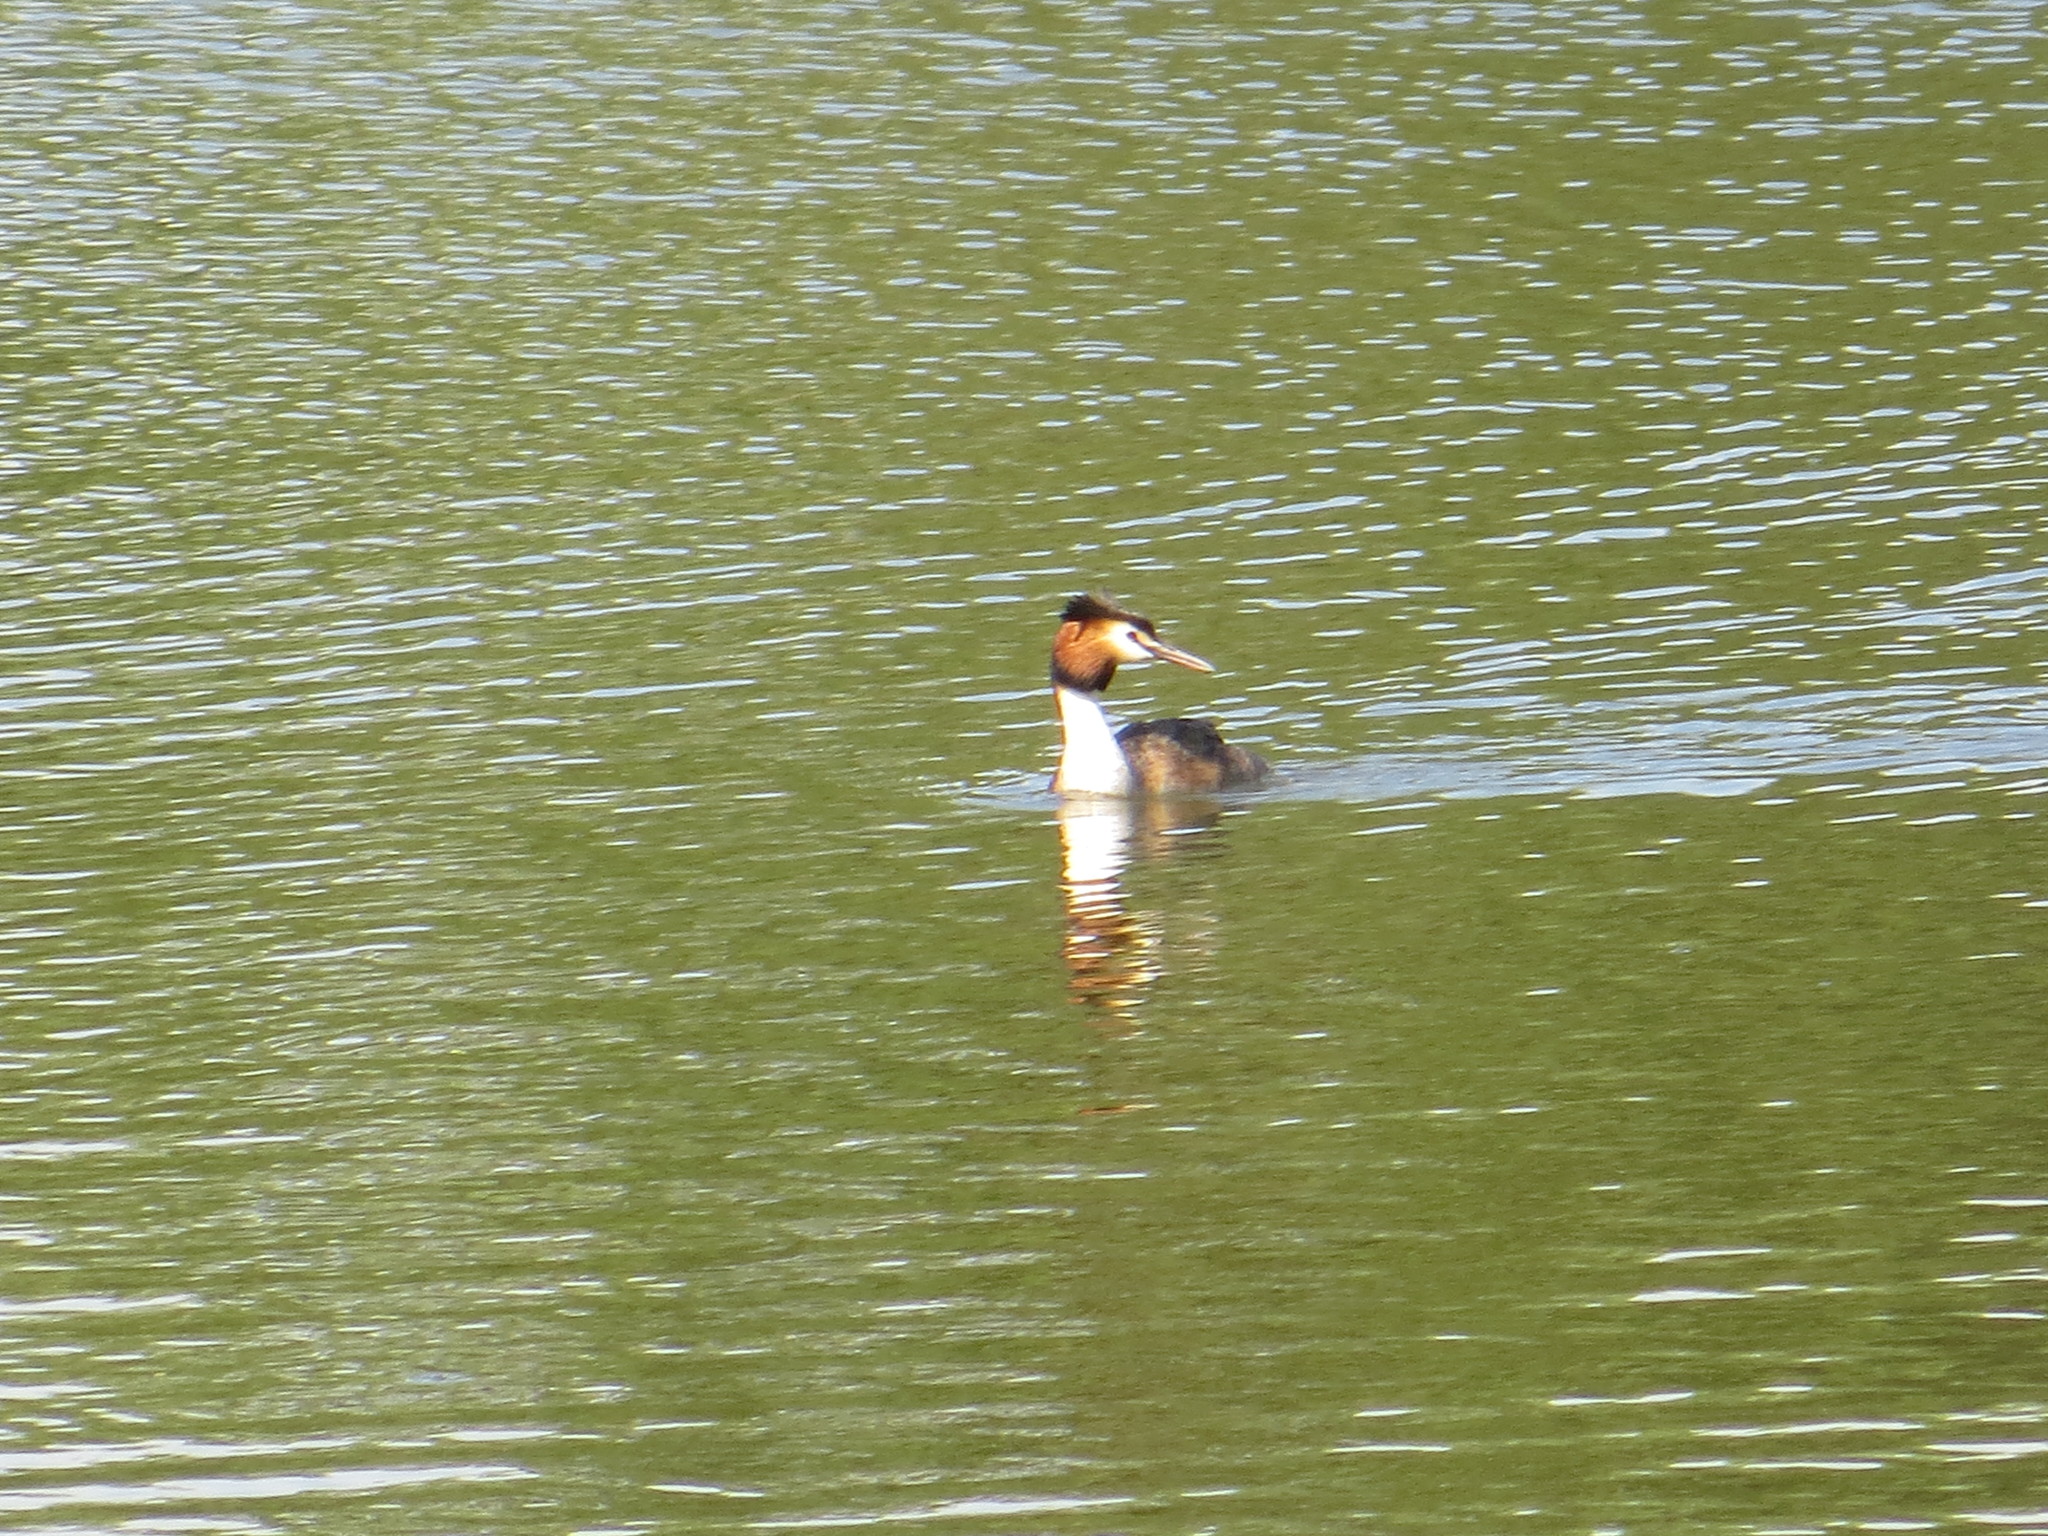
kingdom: Animalia
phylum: Chordata
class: Aves
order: Podicipediformes
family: Podicipedidae
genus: Podiceps
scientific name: Podiceps cristatus
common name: Great crested grebe
